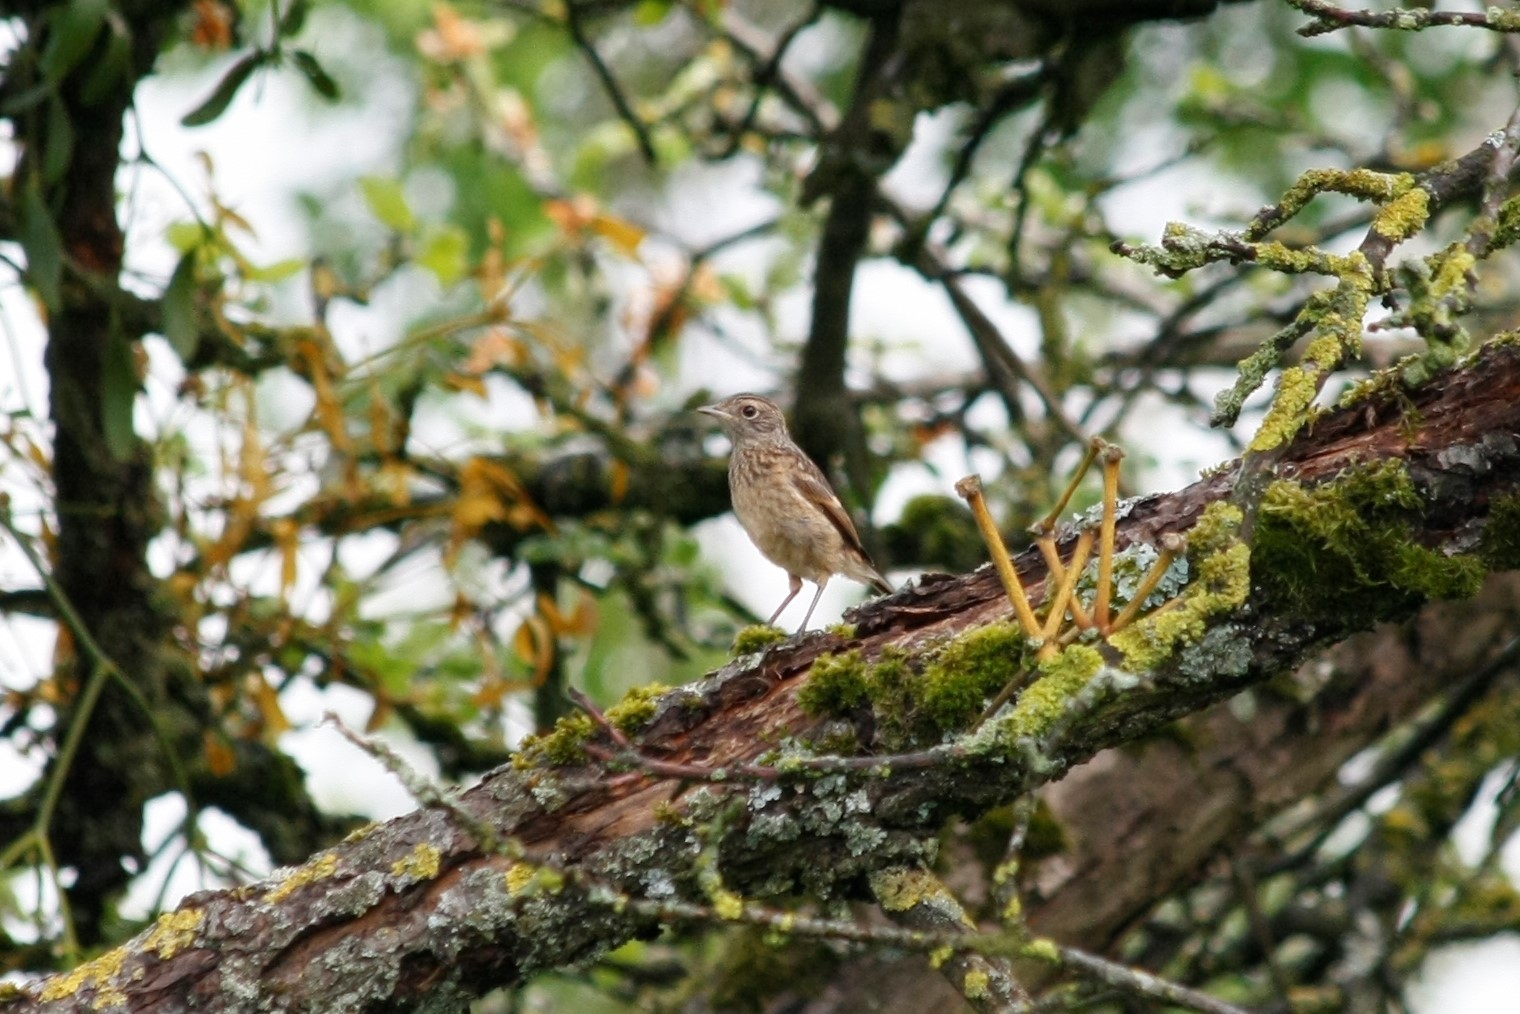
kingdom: Animalia
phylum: Chordata
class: Aves
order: Passeriformes
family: Muscicapidae
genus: Saxicola
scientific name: Saxicola rubicola
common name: European stonechat
